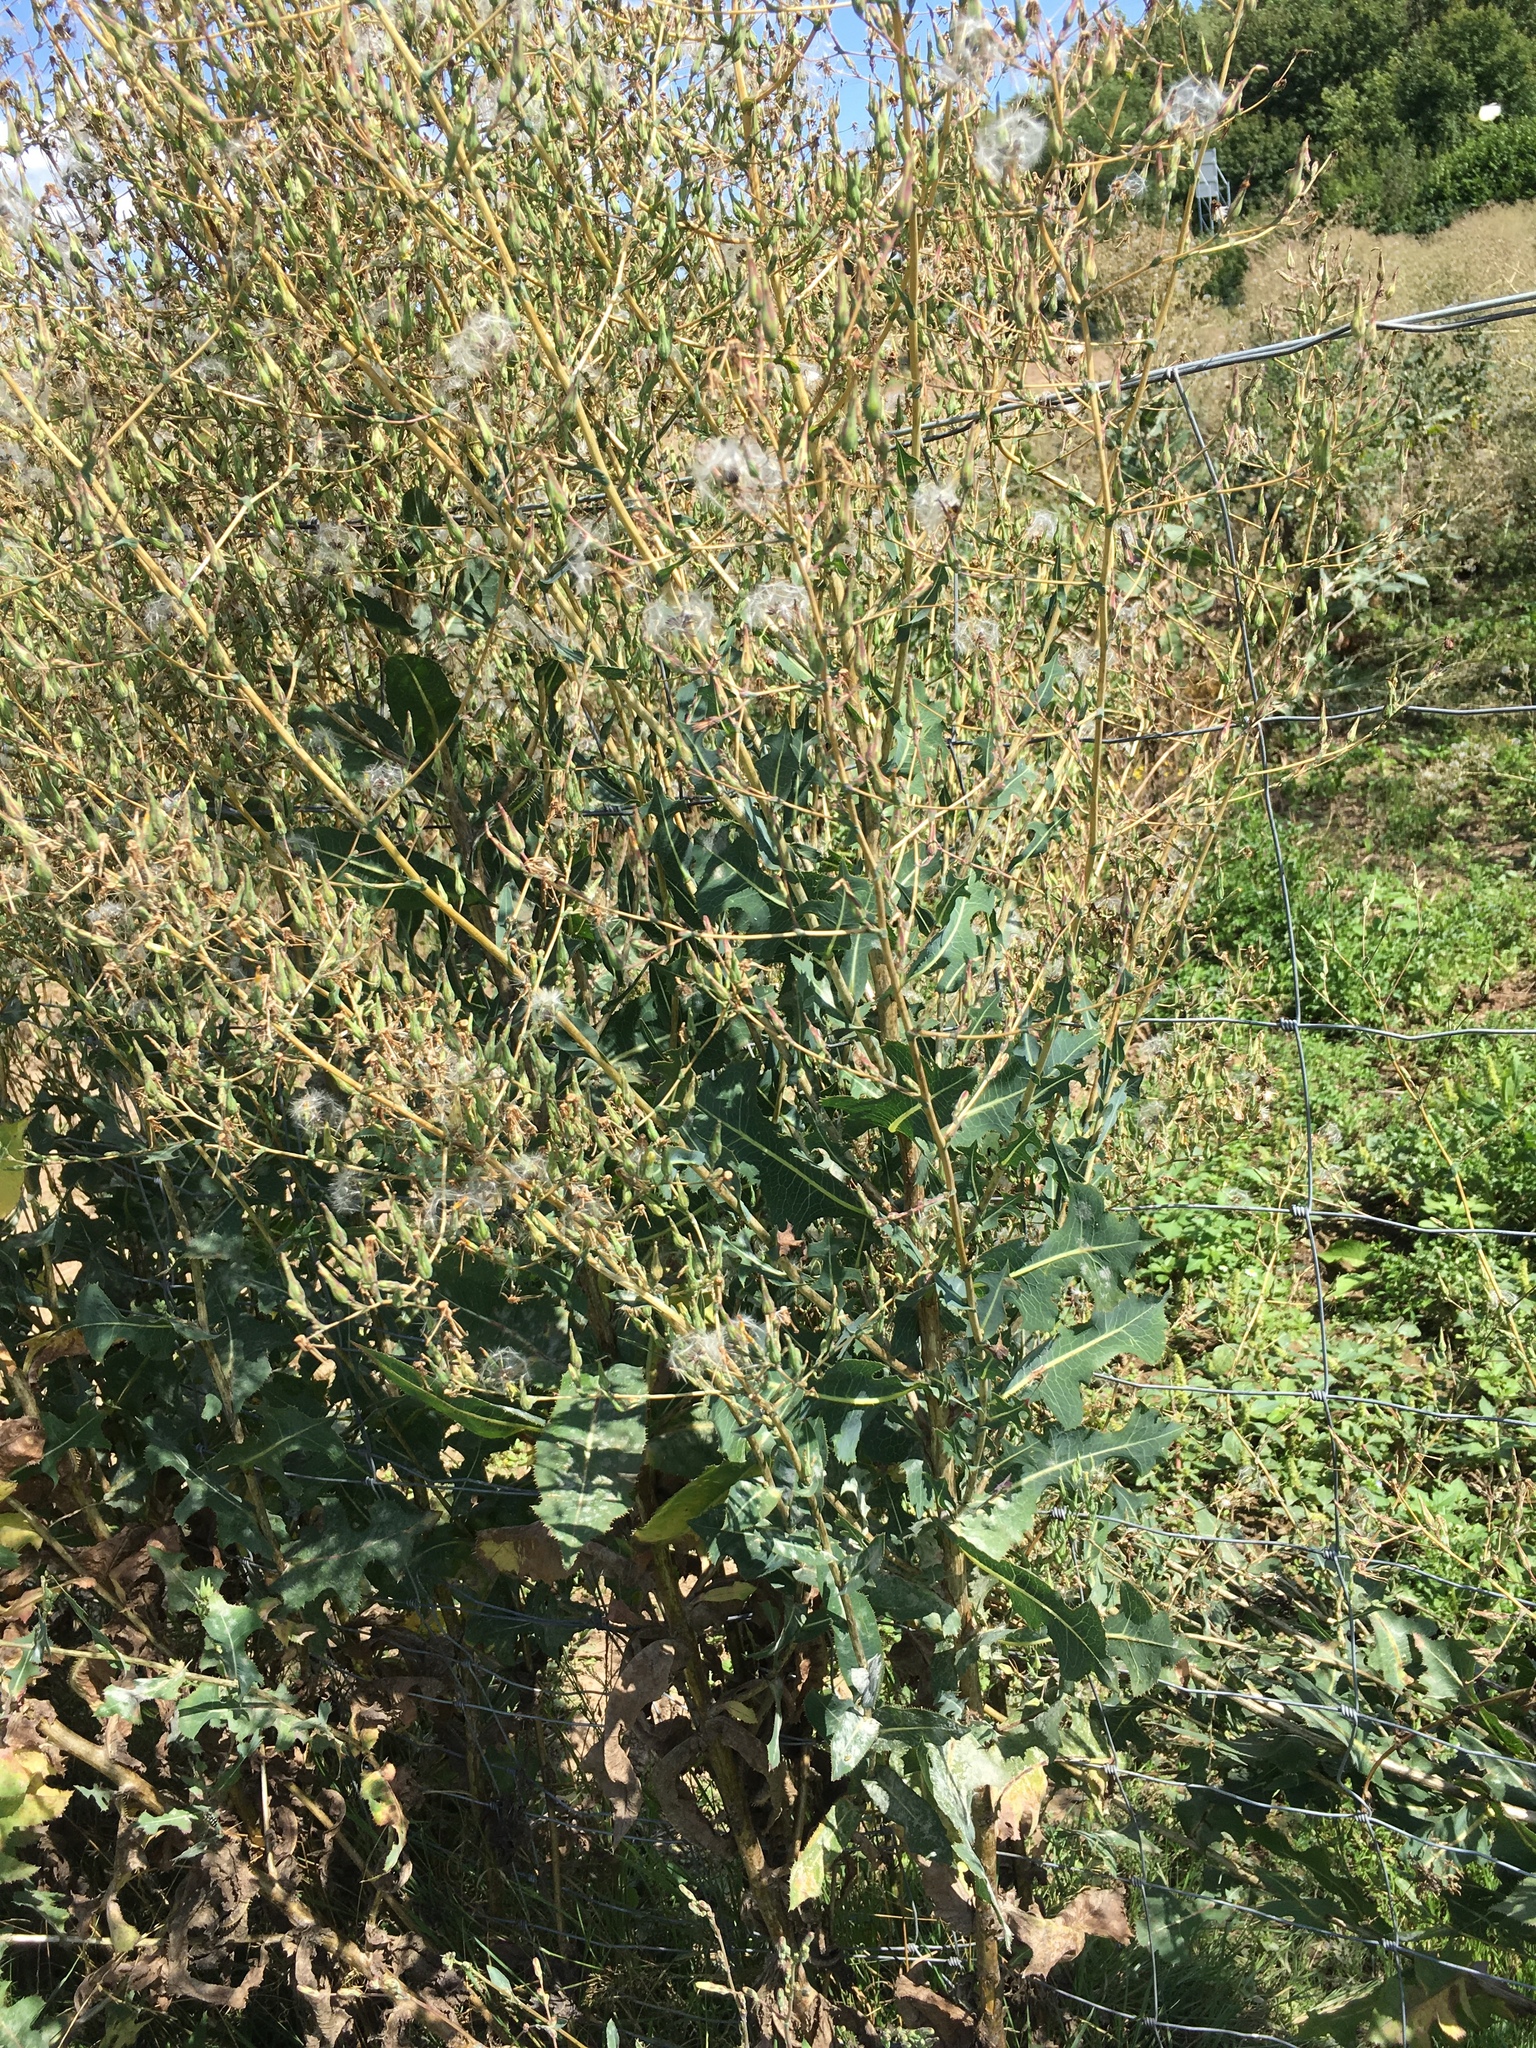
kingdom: Plantae
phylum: Tracheophyta
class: Magnoliopsida
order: Asterales
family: Asteraceae
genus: Lactuca
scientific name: Lactuca serriola
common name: Prickly lettuce
